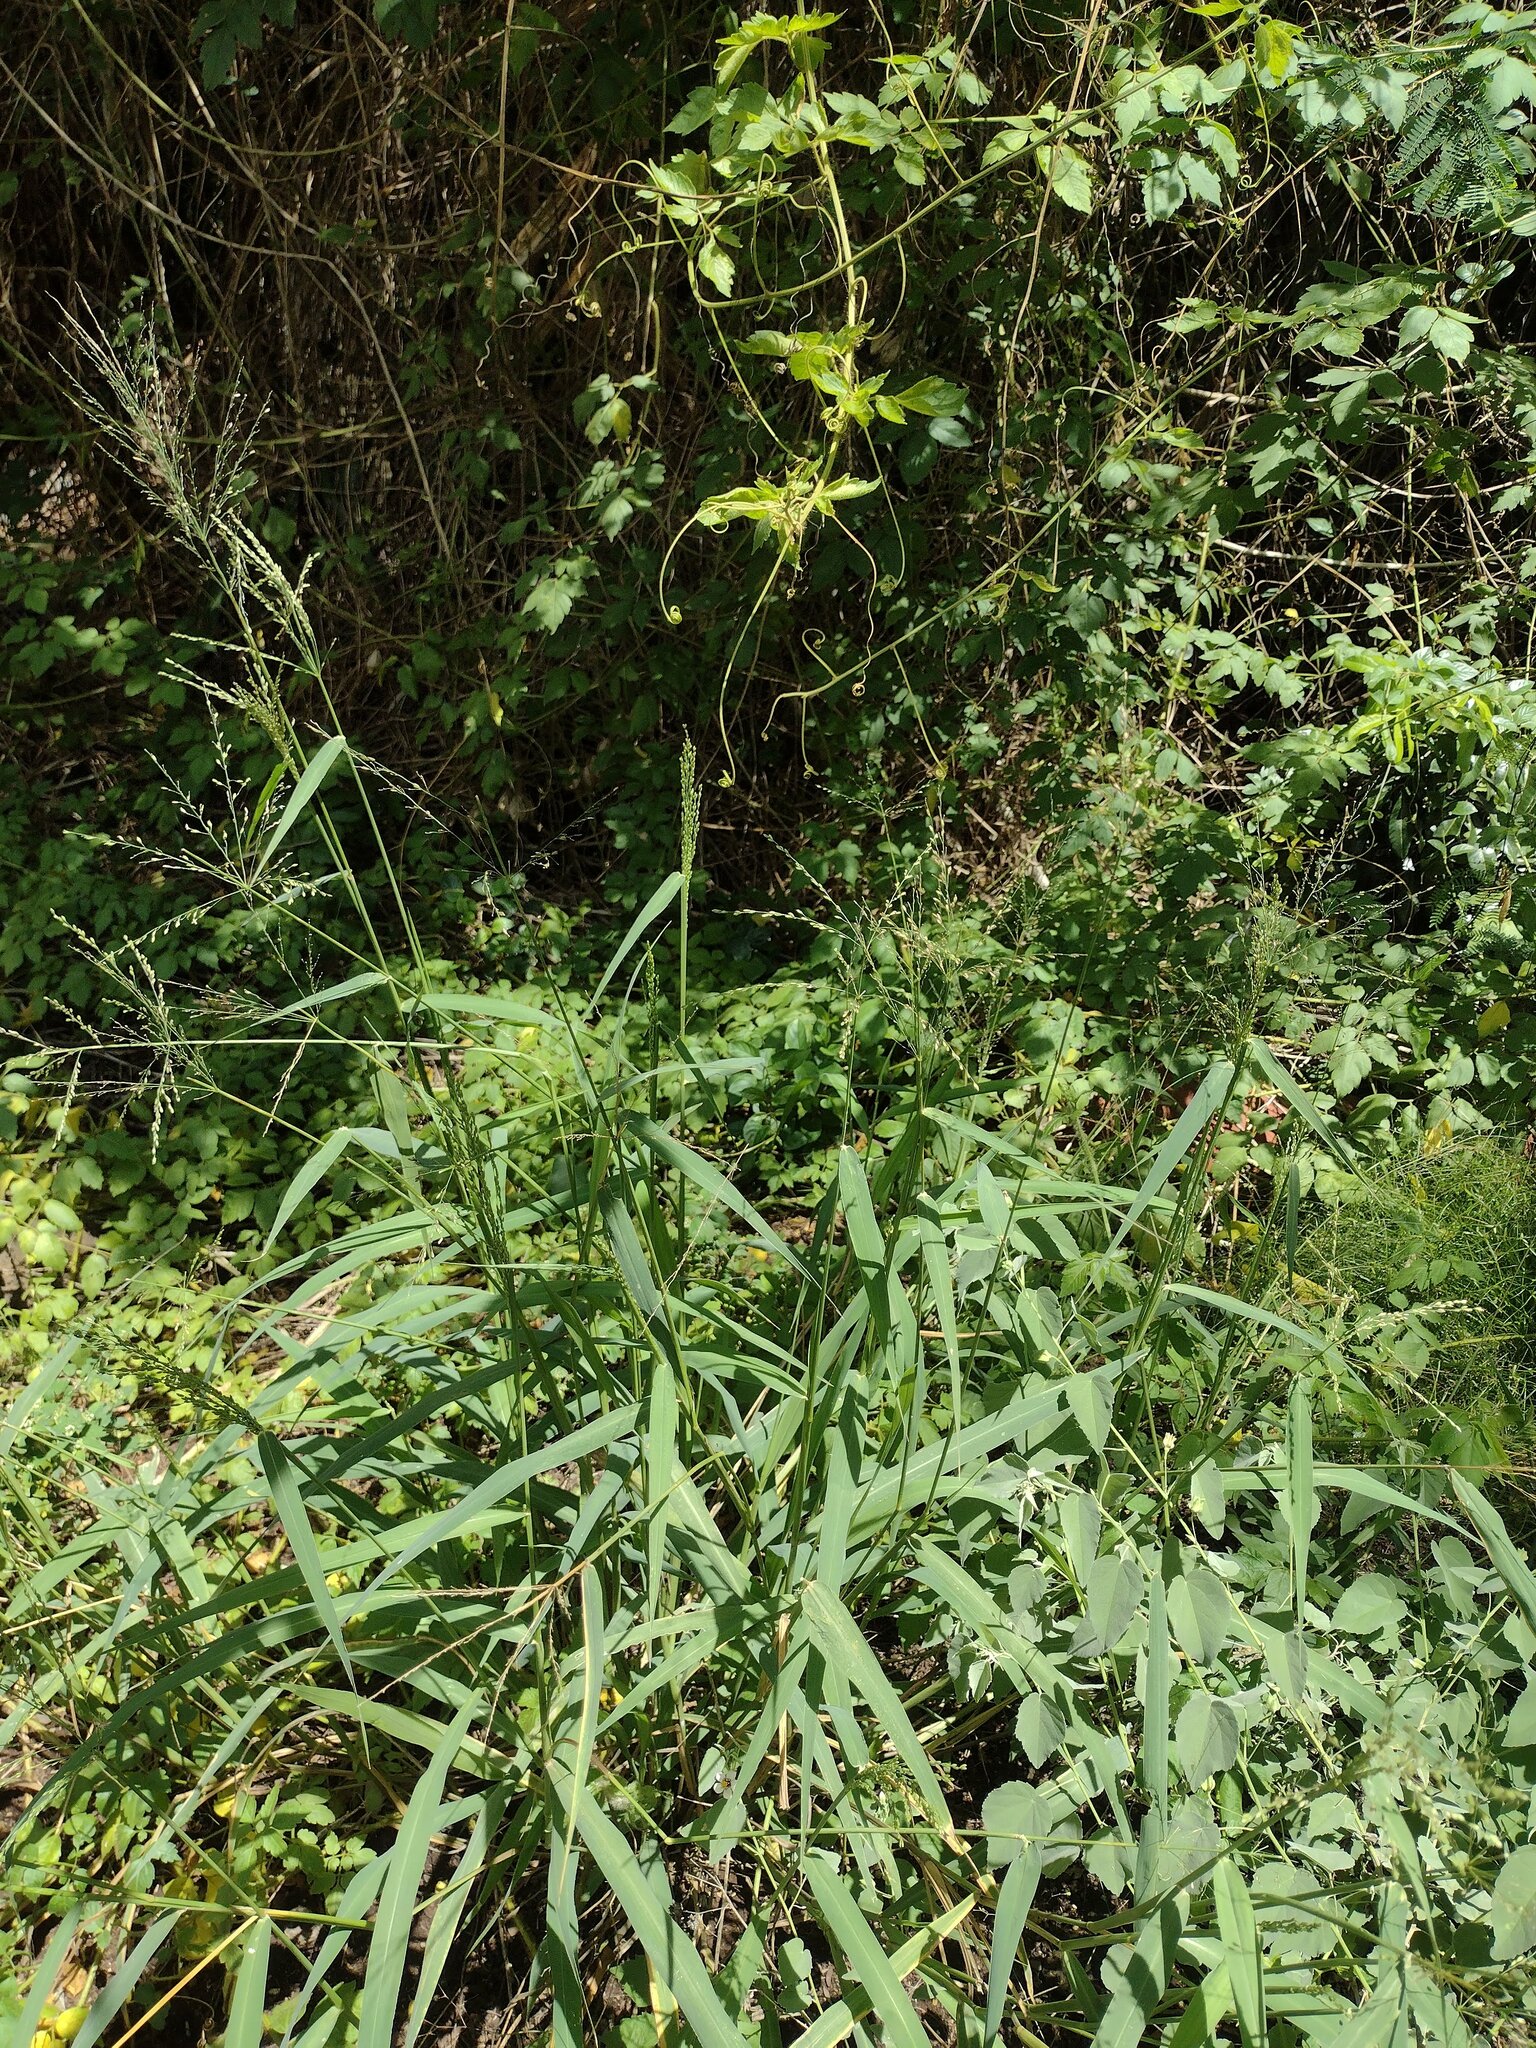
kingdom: Plantae
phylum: Tracheophyta
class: Liliopsida
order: Poales
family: Poaceae
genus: Megathyrsus
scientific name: Megathyrsus maximus
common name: Guineagrass
